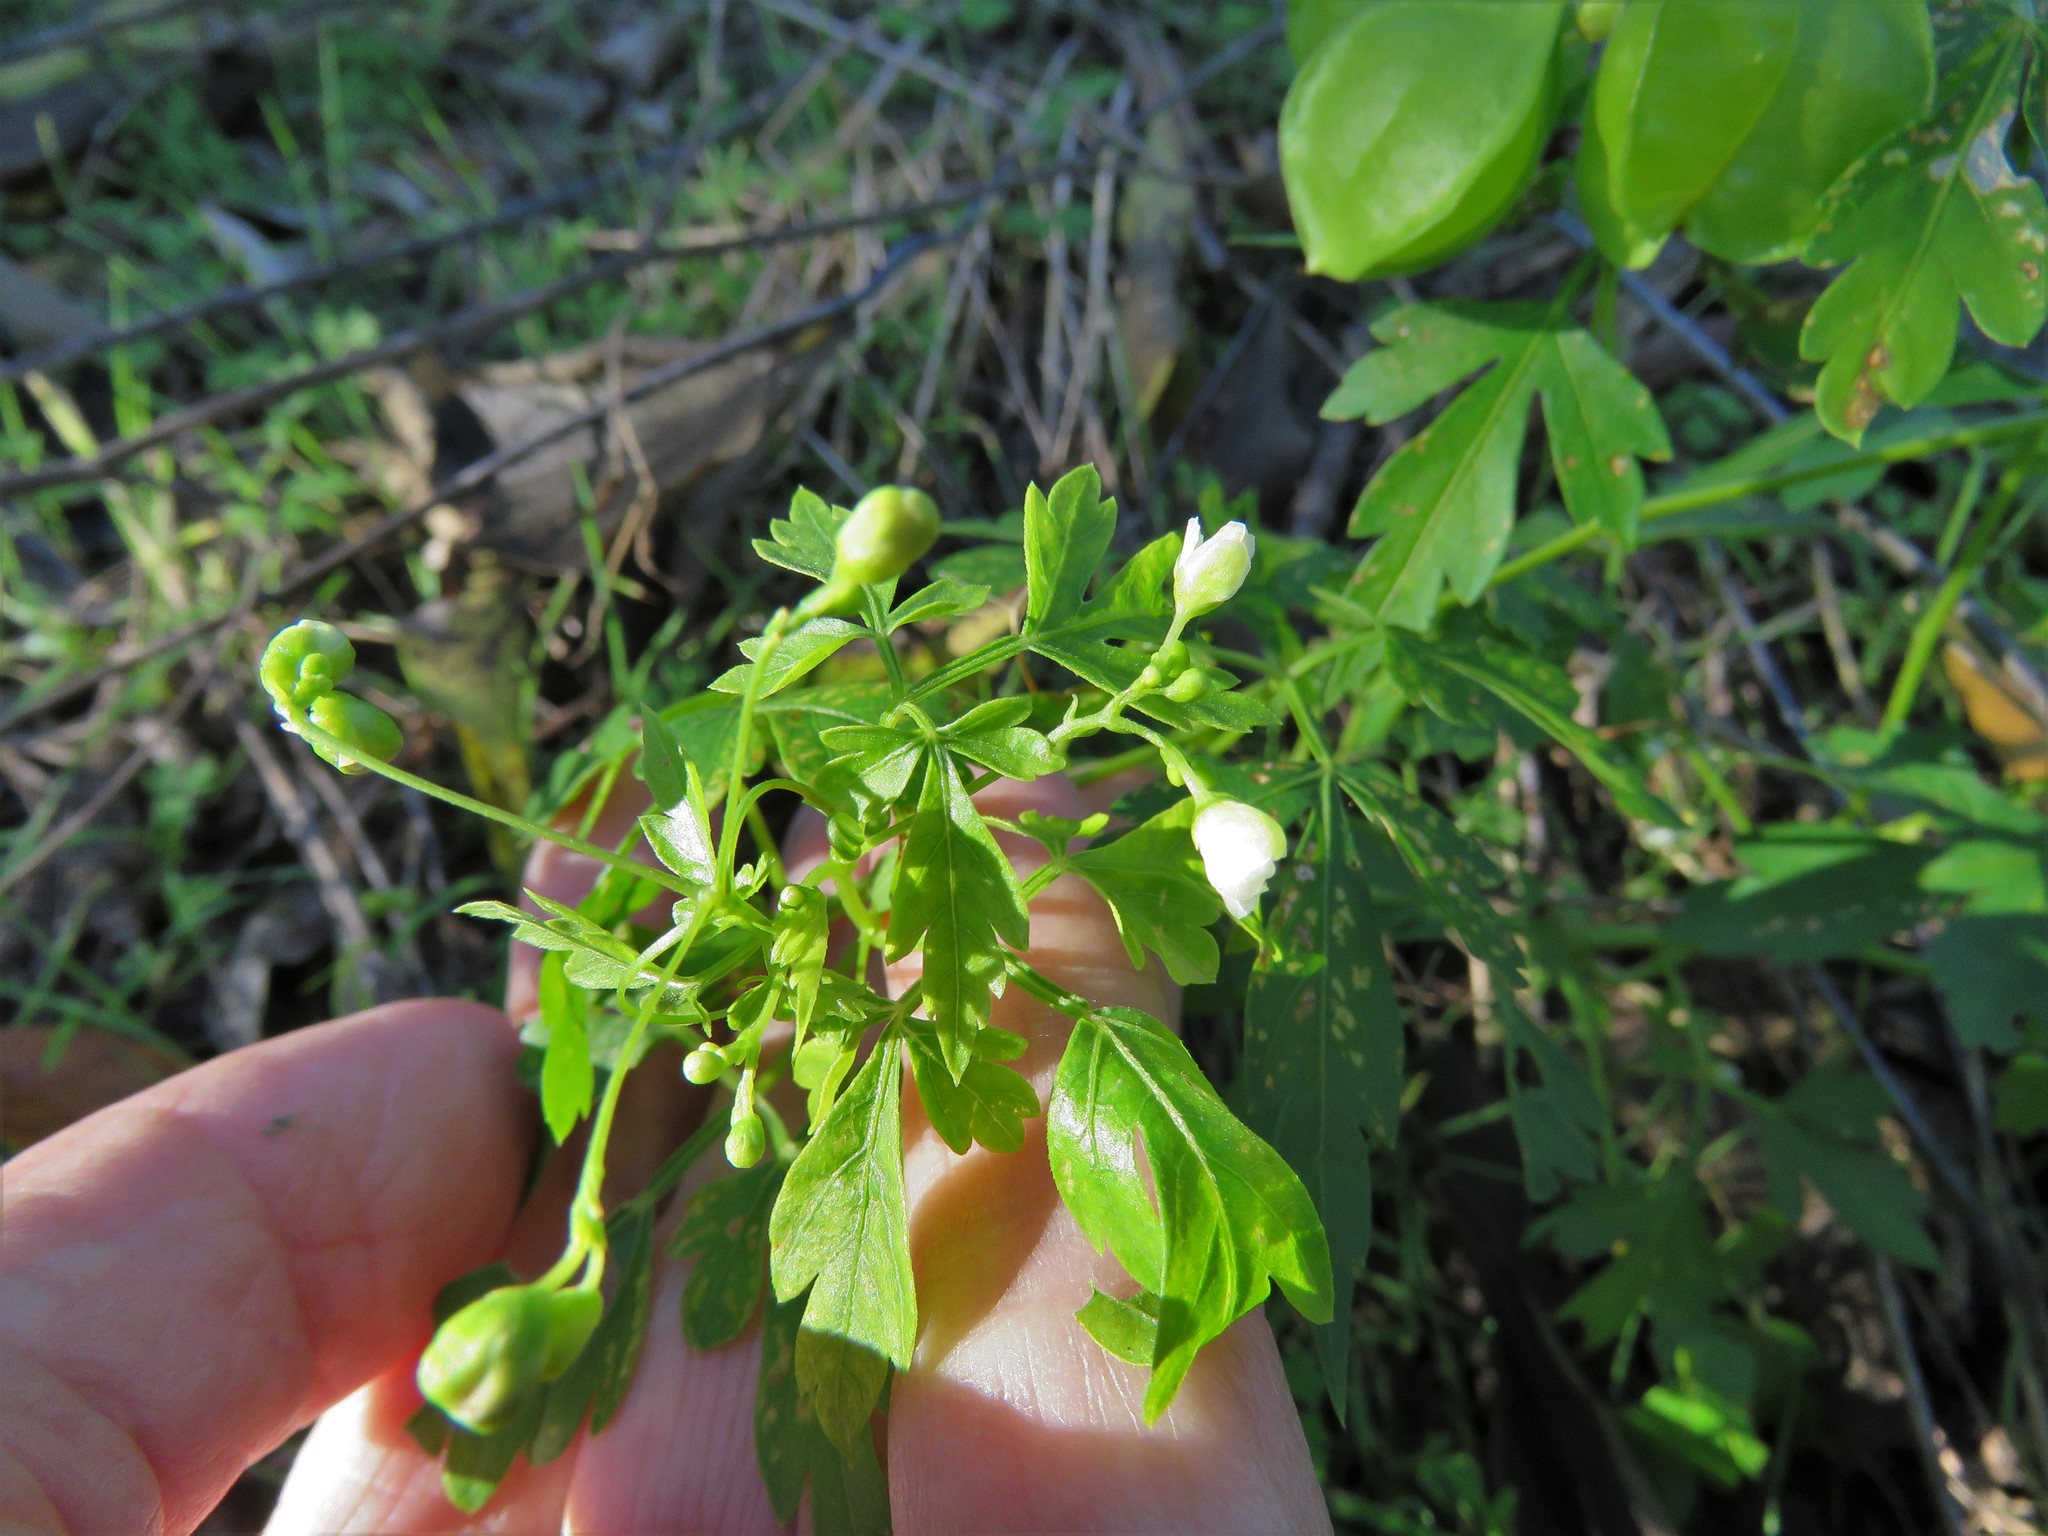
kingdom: Plantae
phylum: Tracheophyta
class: Magnoliopsida
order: Sapindales
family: Sapindaceae
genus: Cardiospermum
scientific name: Cardiospermum halicacabum
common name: Balloon vine
